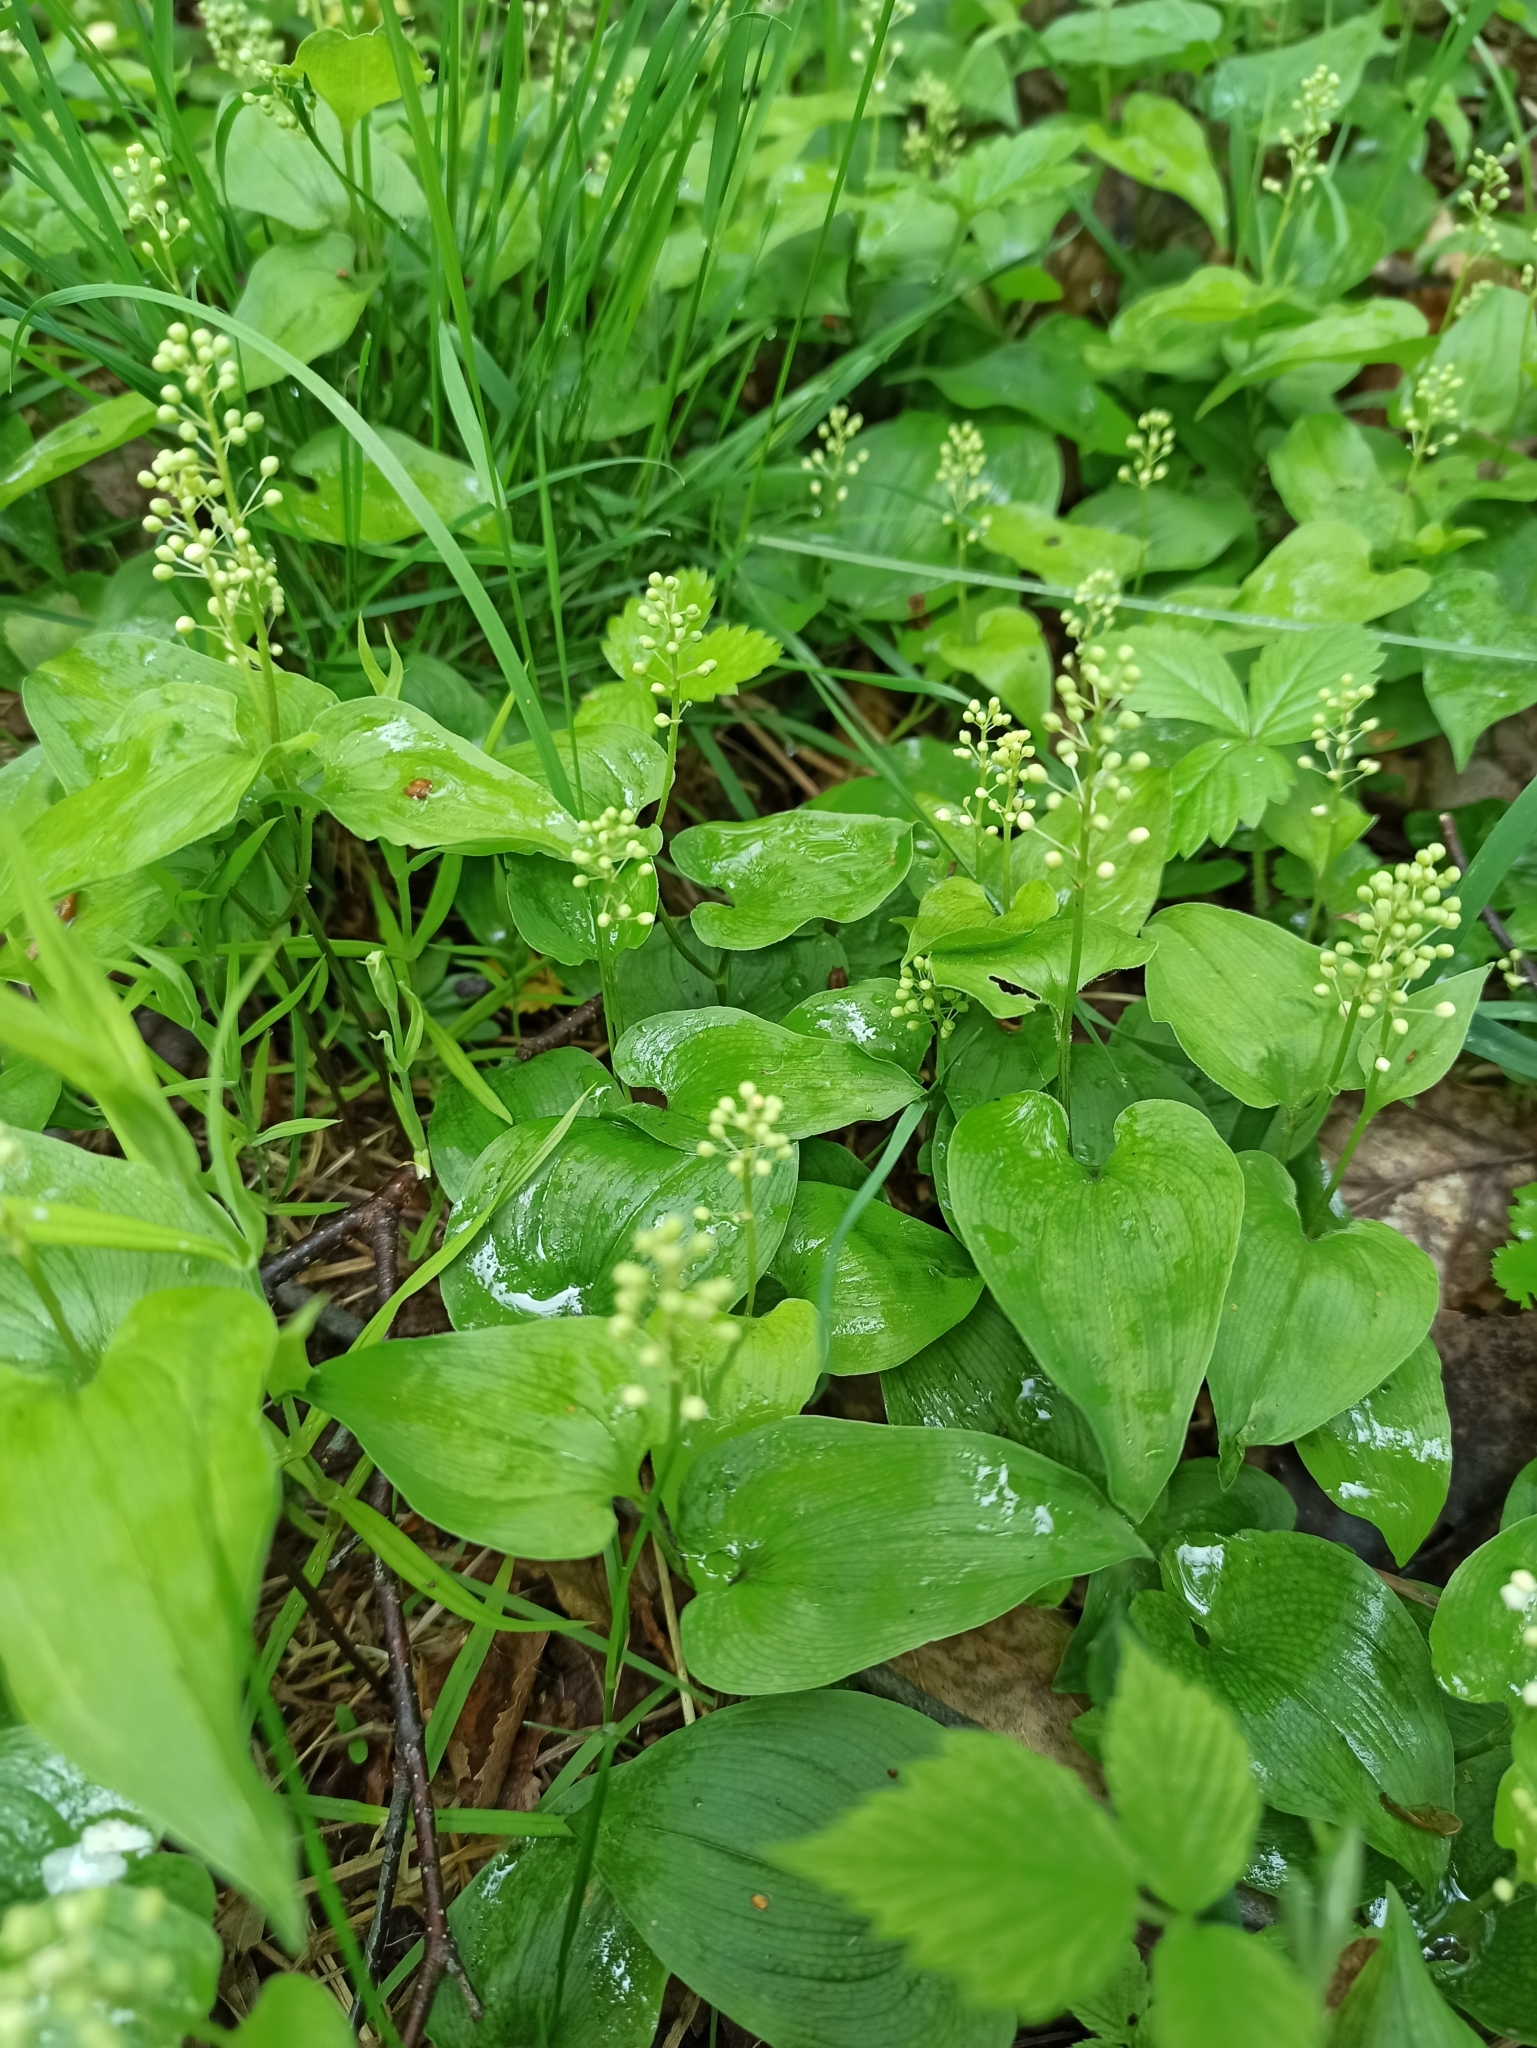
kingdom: Plantae
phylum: Tracheophyta
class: Liliopsida
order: Asparagales
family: Asparagaceae
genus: Maianthemum
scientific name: Maianthemum bifolium
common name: May lily
